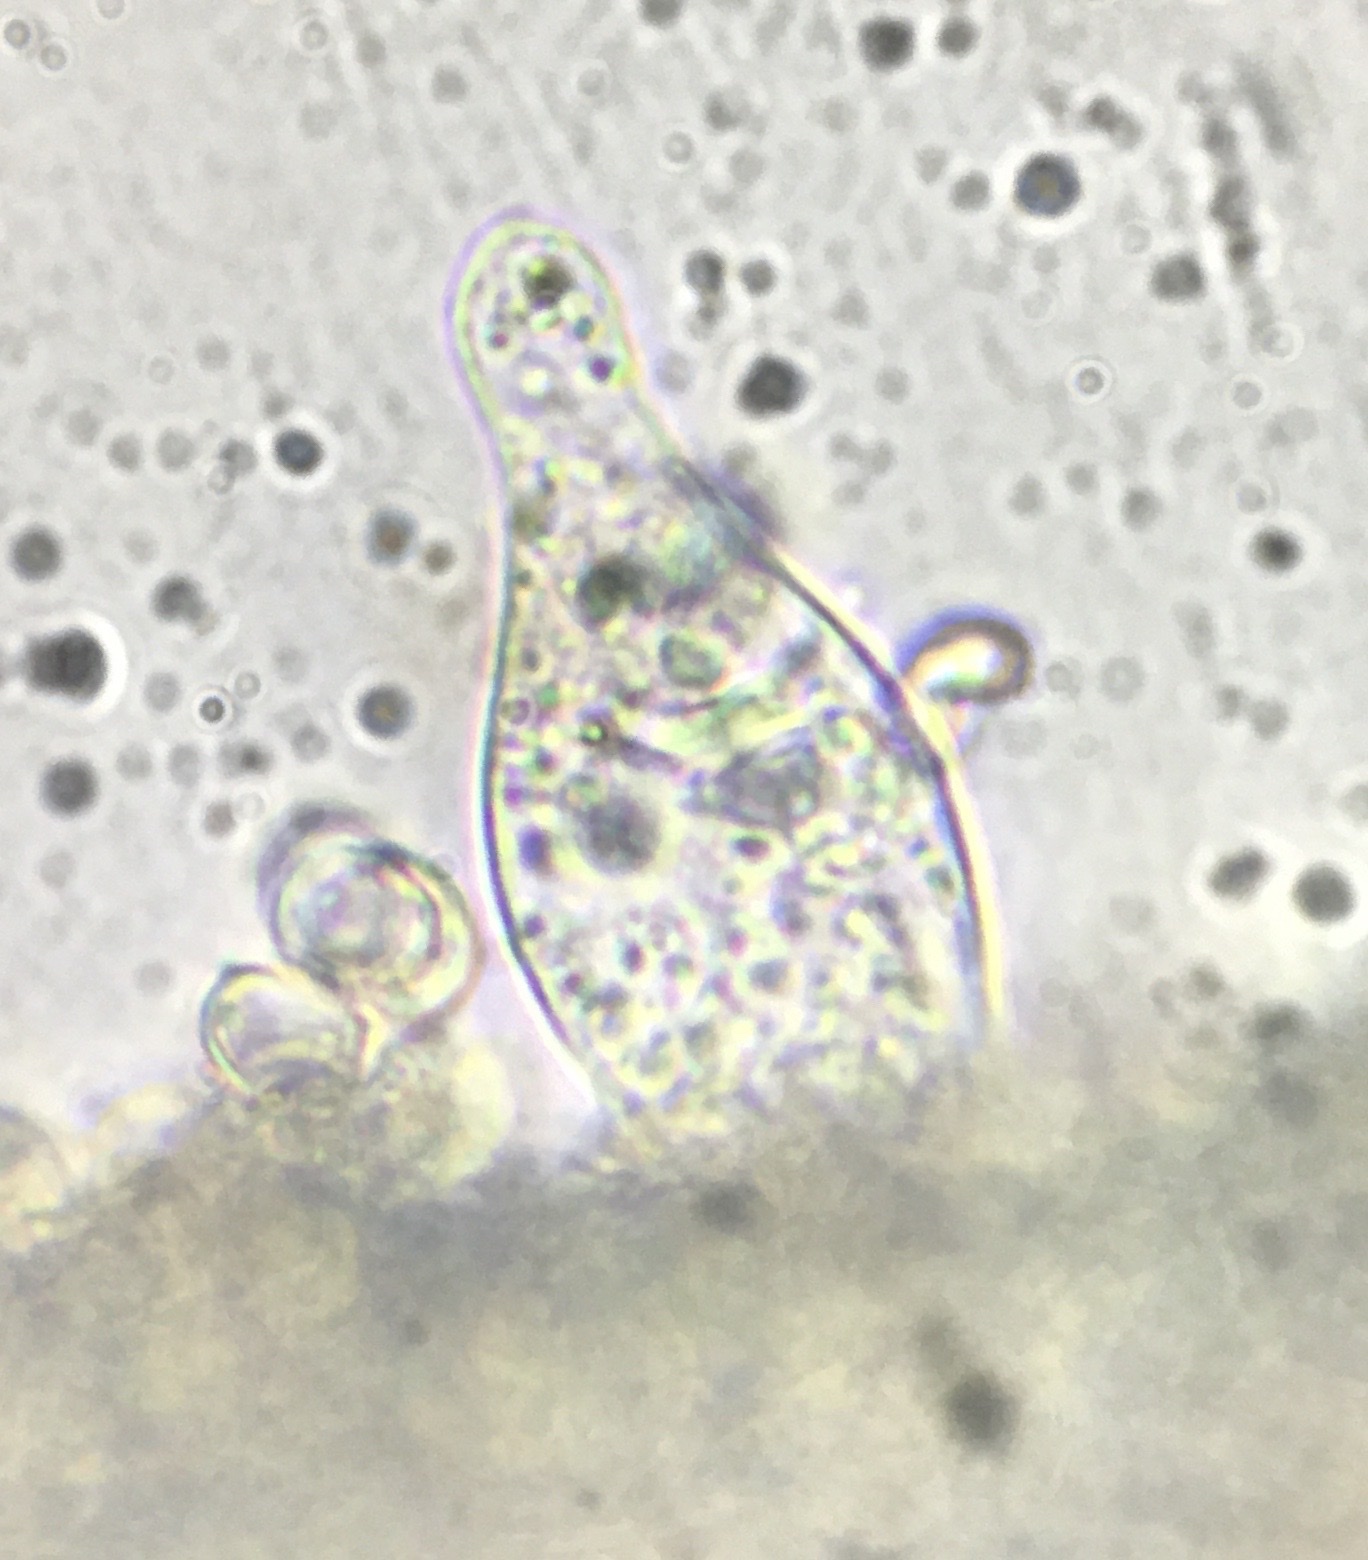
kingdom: Fungi
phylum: Basidiomycota
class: Agaricomycetes
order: Agaricales
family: Pluteaceae
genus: Pluteus
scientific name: Pluteus punctatus
